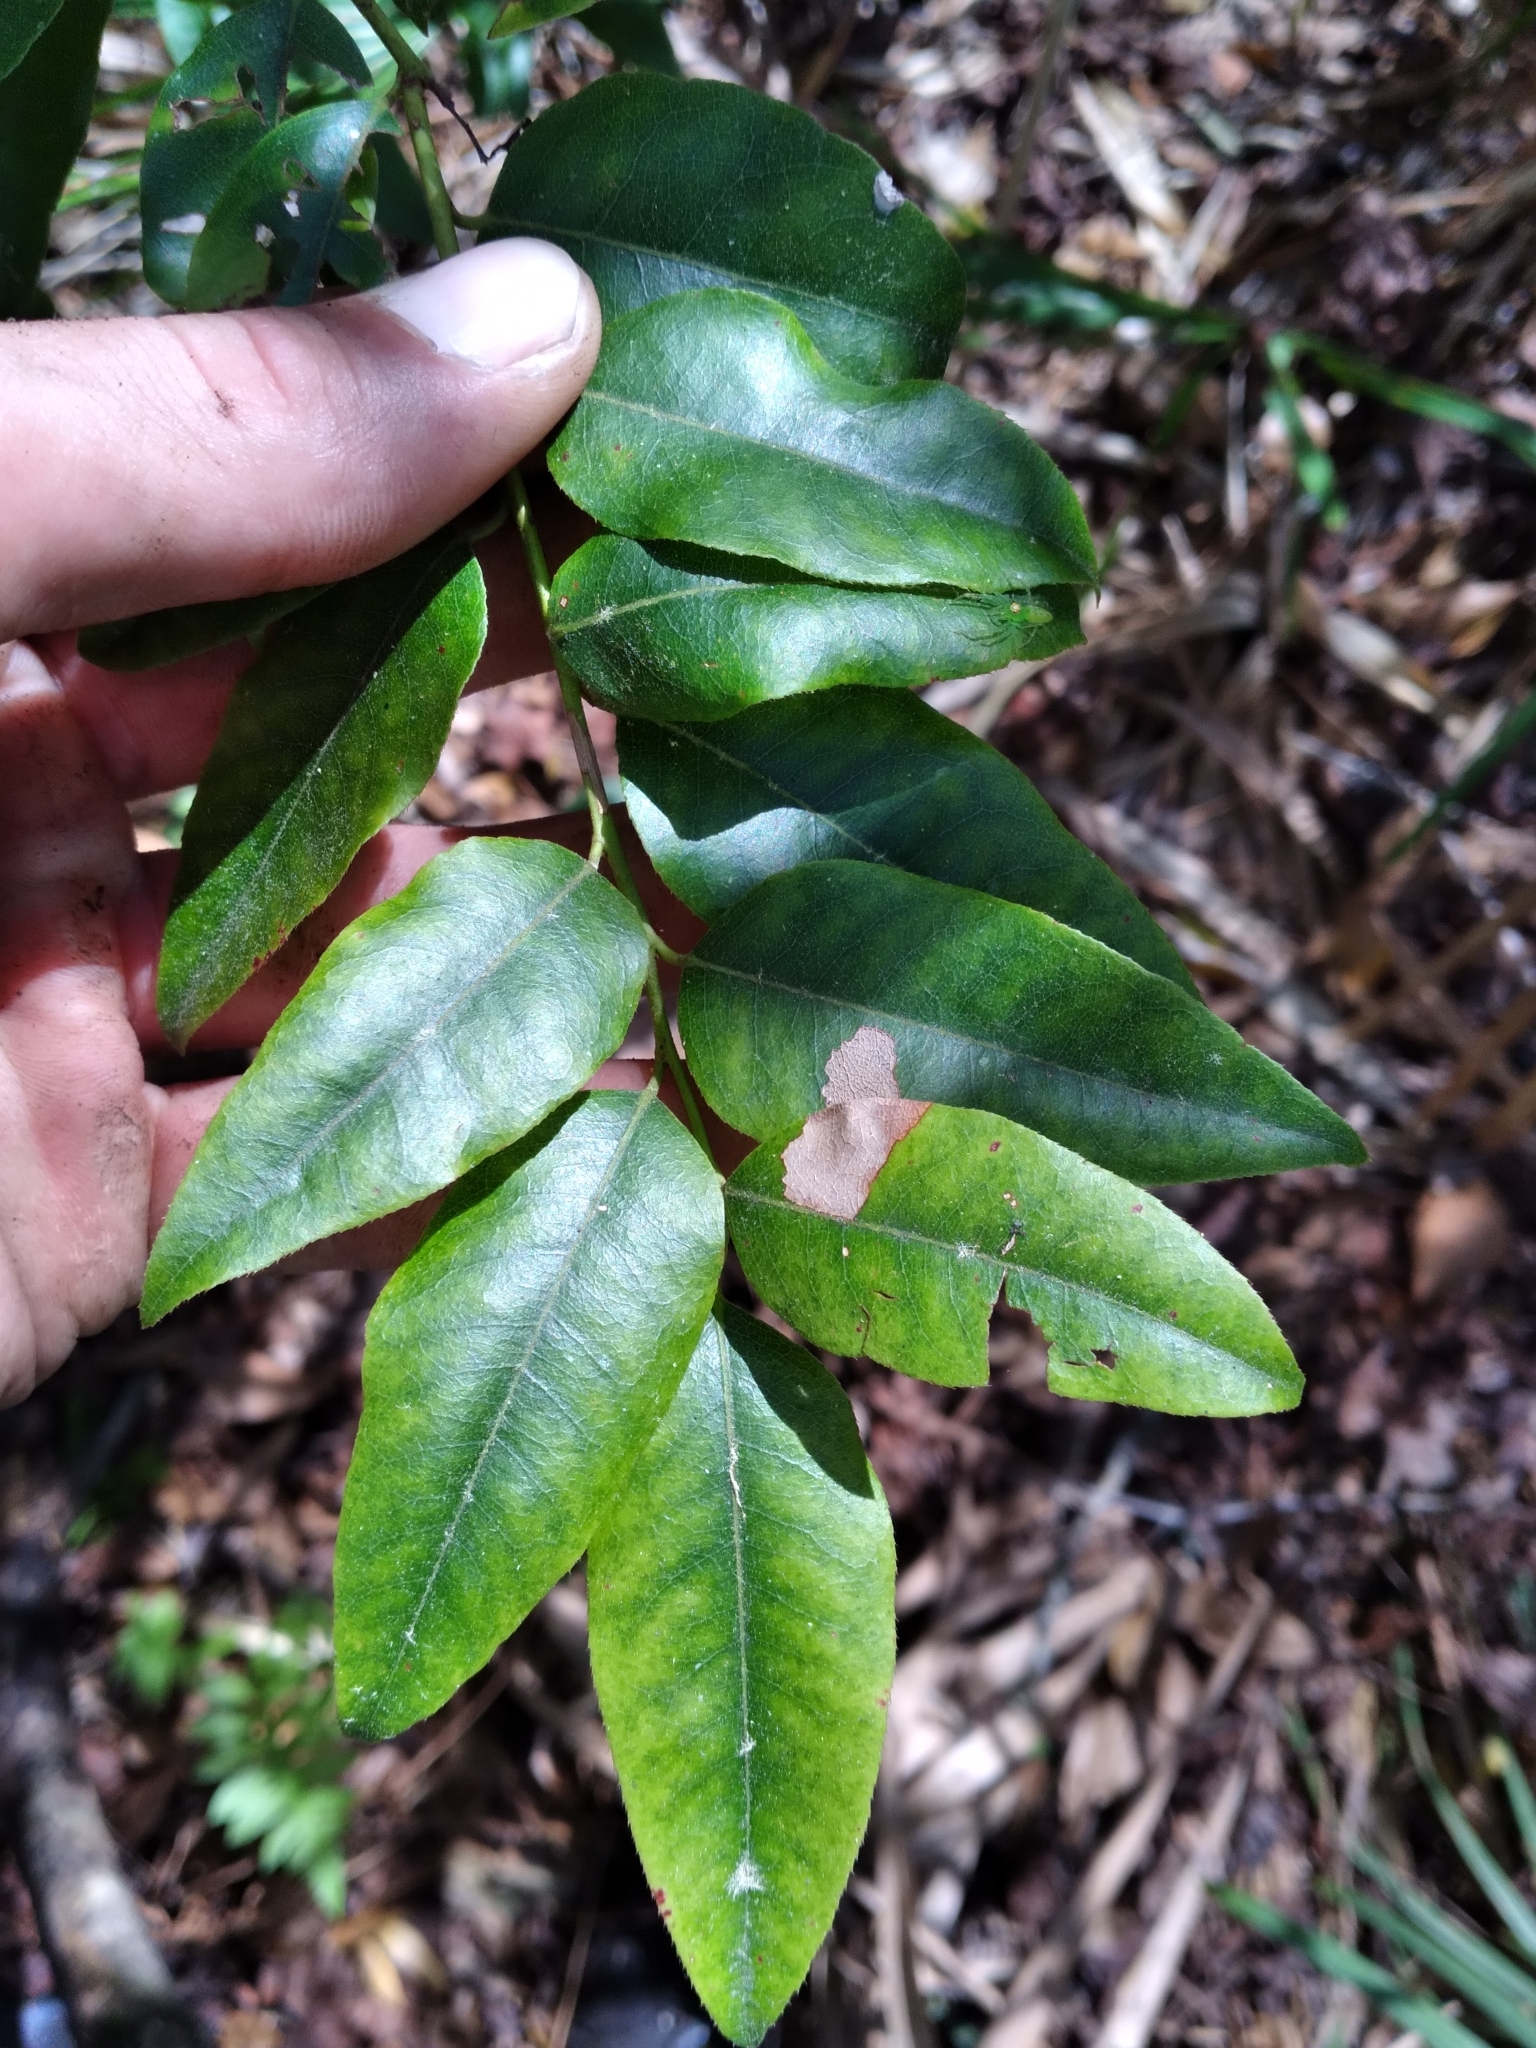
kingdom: Plantae
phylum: Tracheophyta
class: Magnoliopsida
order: Ericales
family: Ericaceae
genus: Agarista
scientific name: Agarista populifolia
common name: Pipeplant
